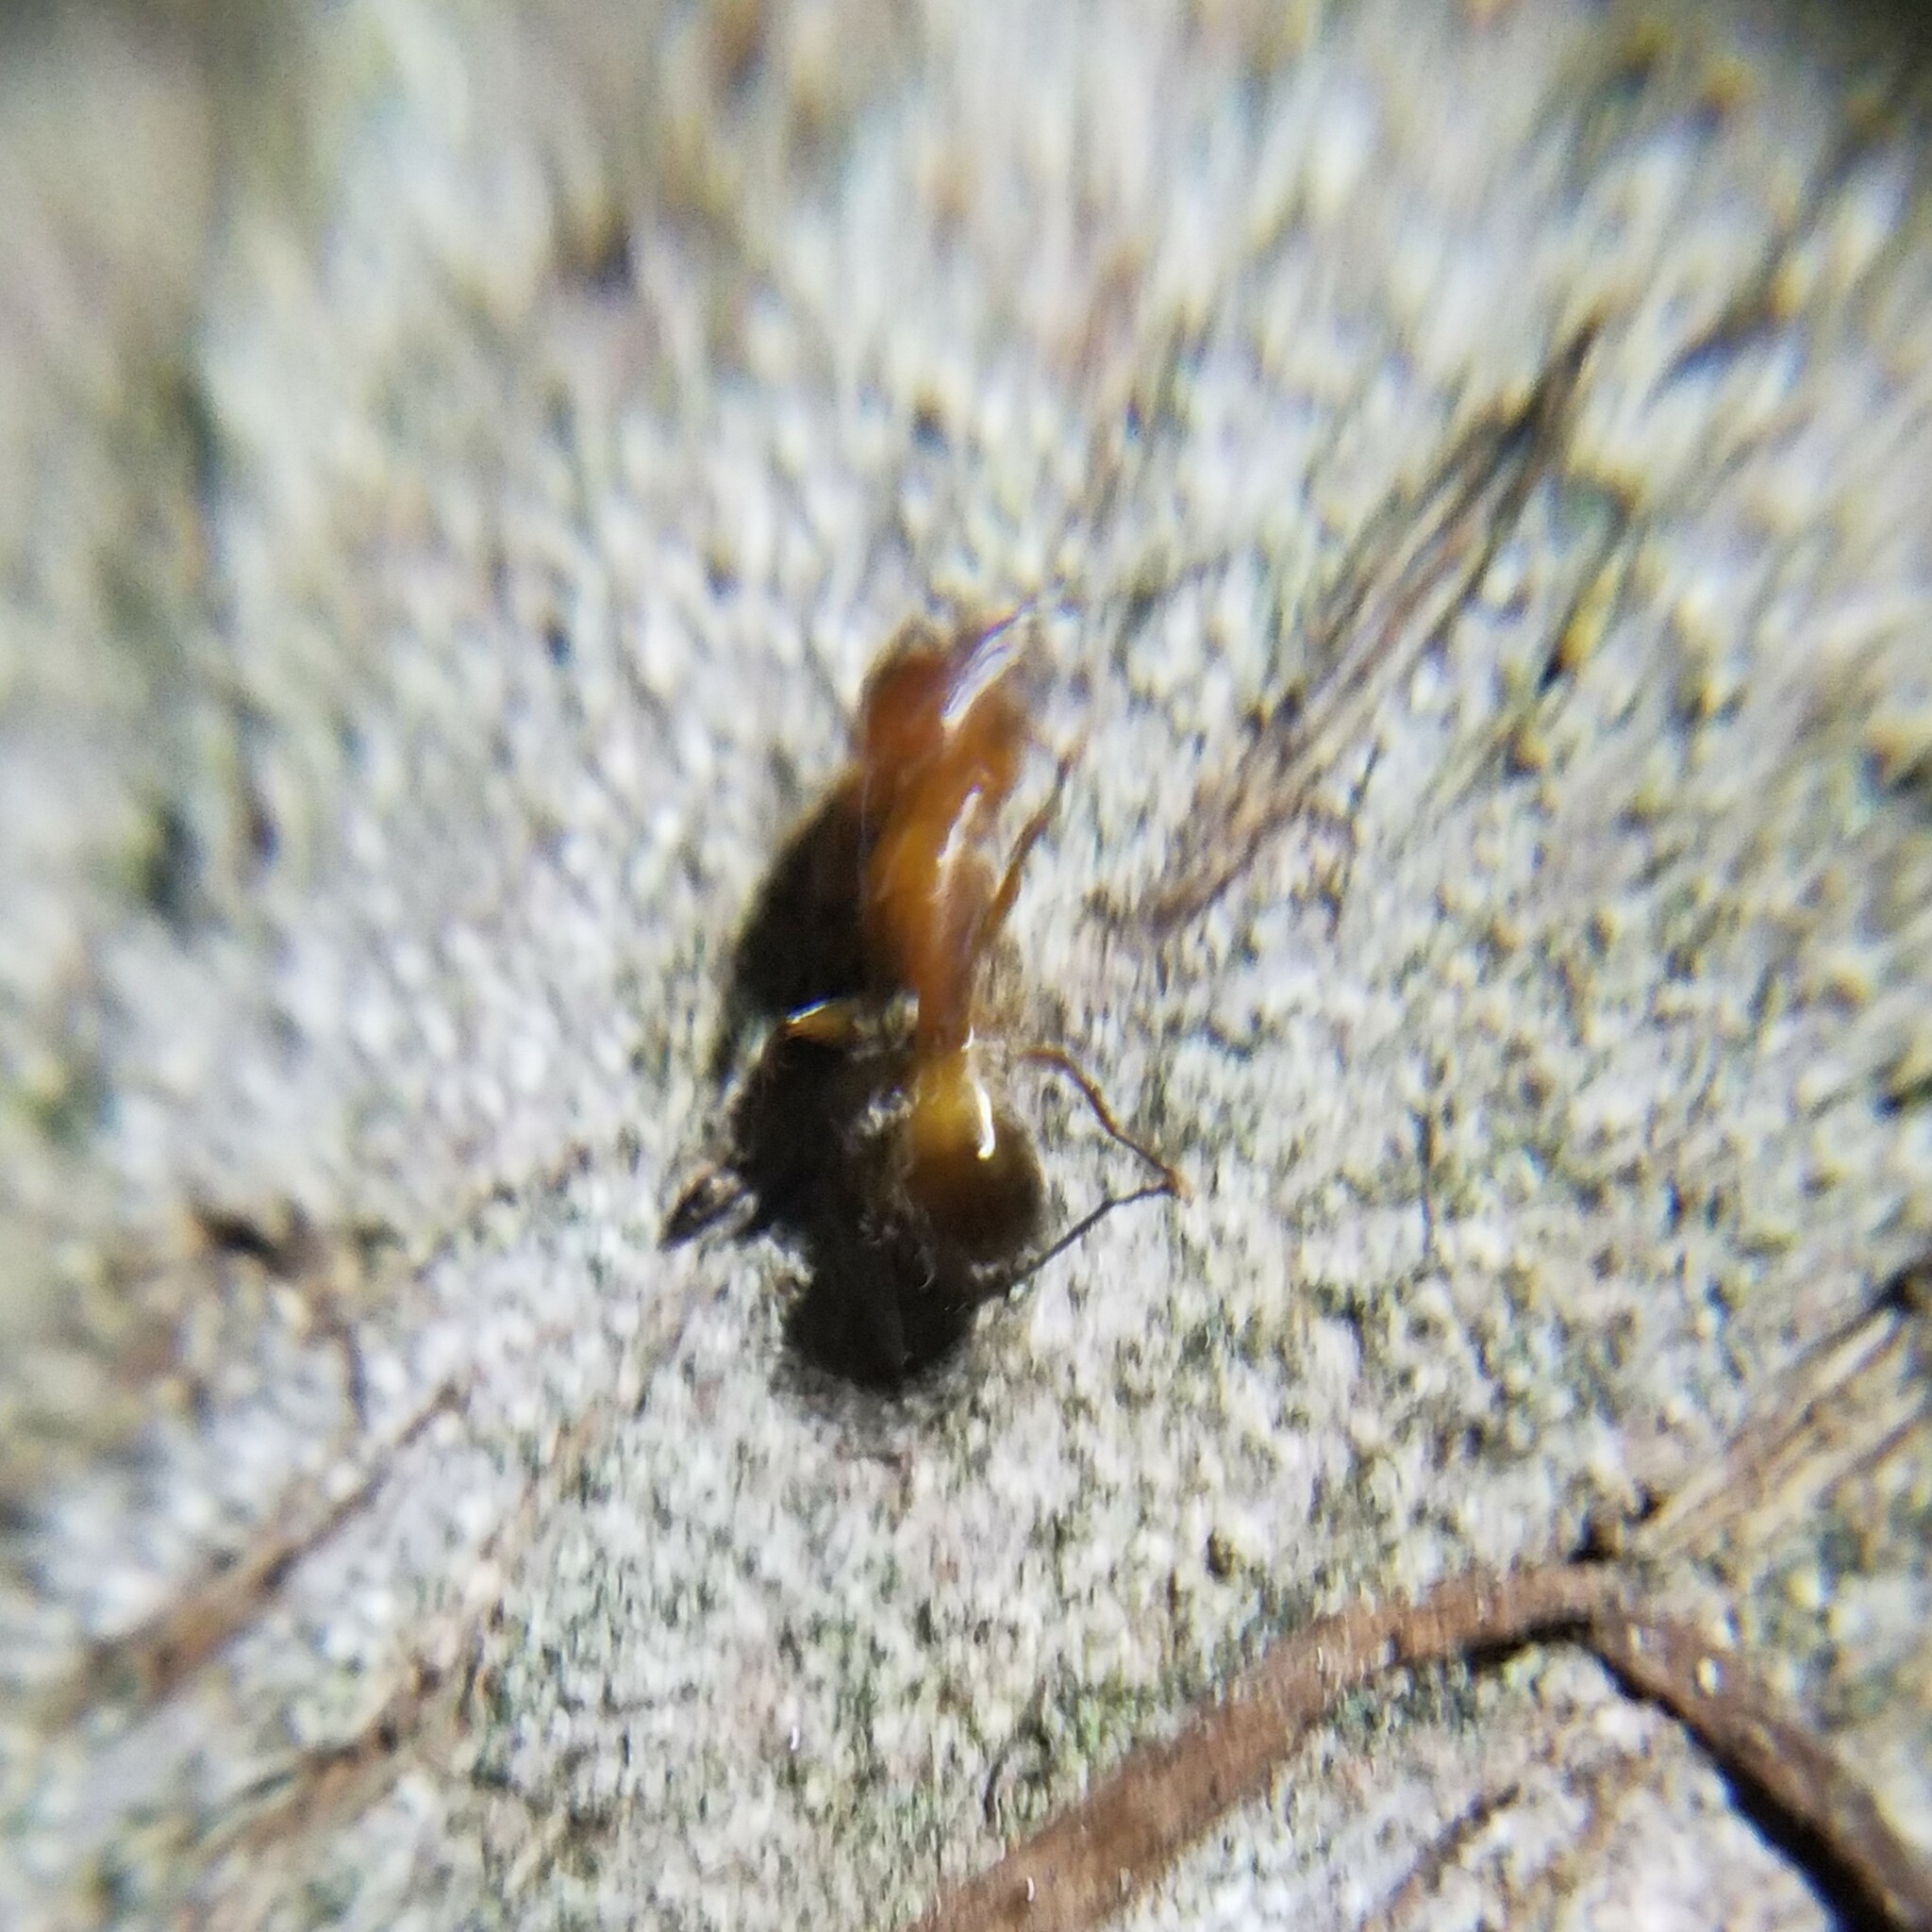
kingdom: Animalia
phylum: Arthropoda
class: Insecta
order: Hymenoptera
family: Formicidae
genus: Camponotus
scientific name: Camponotus snellingi
